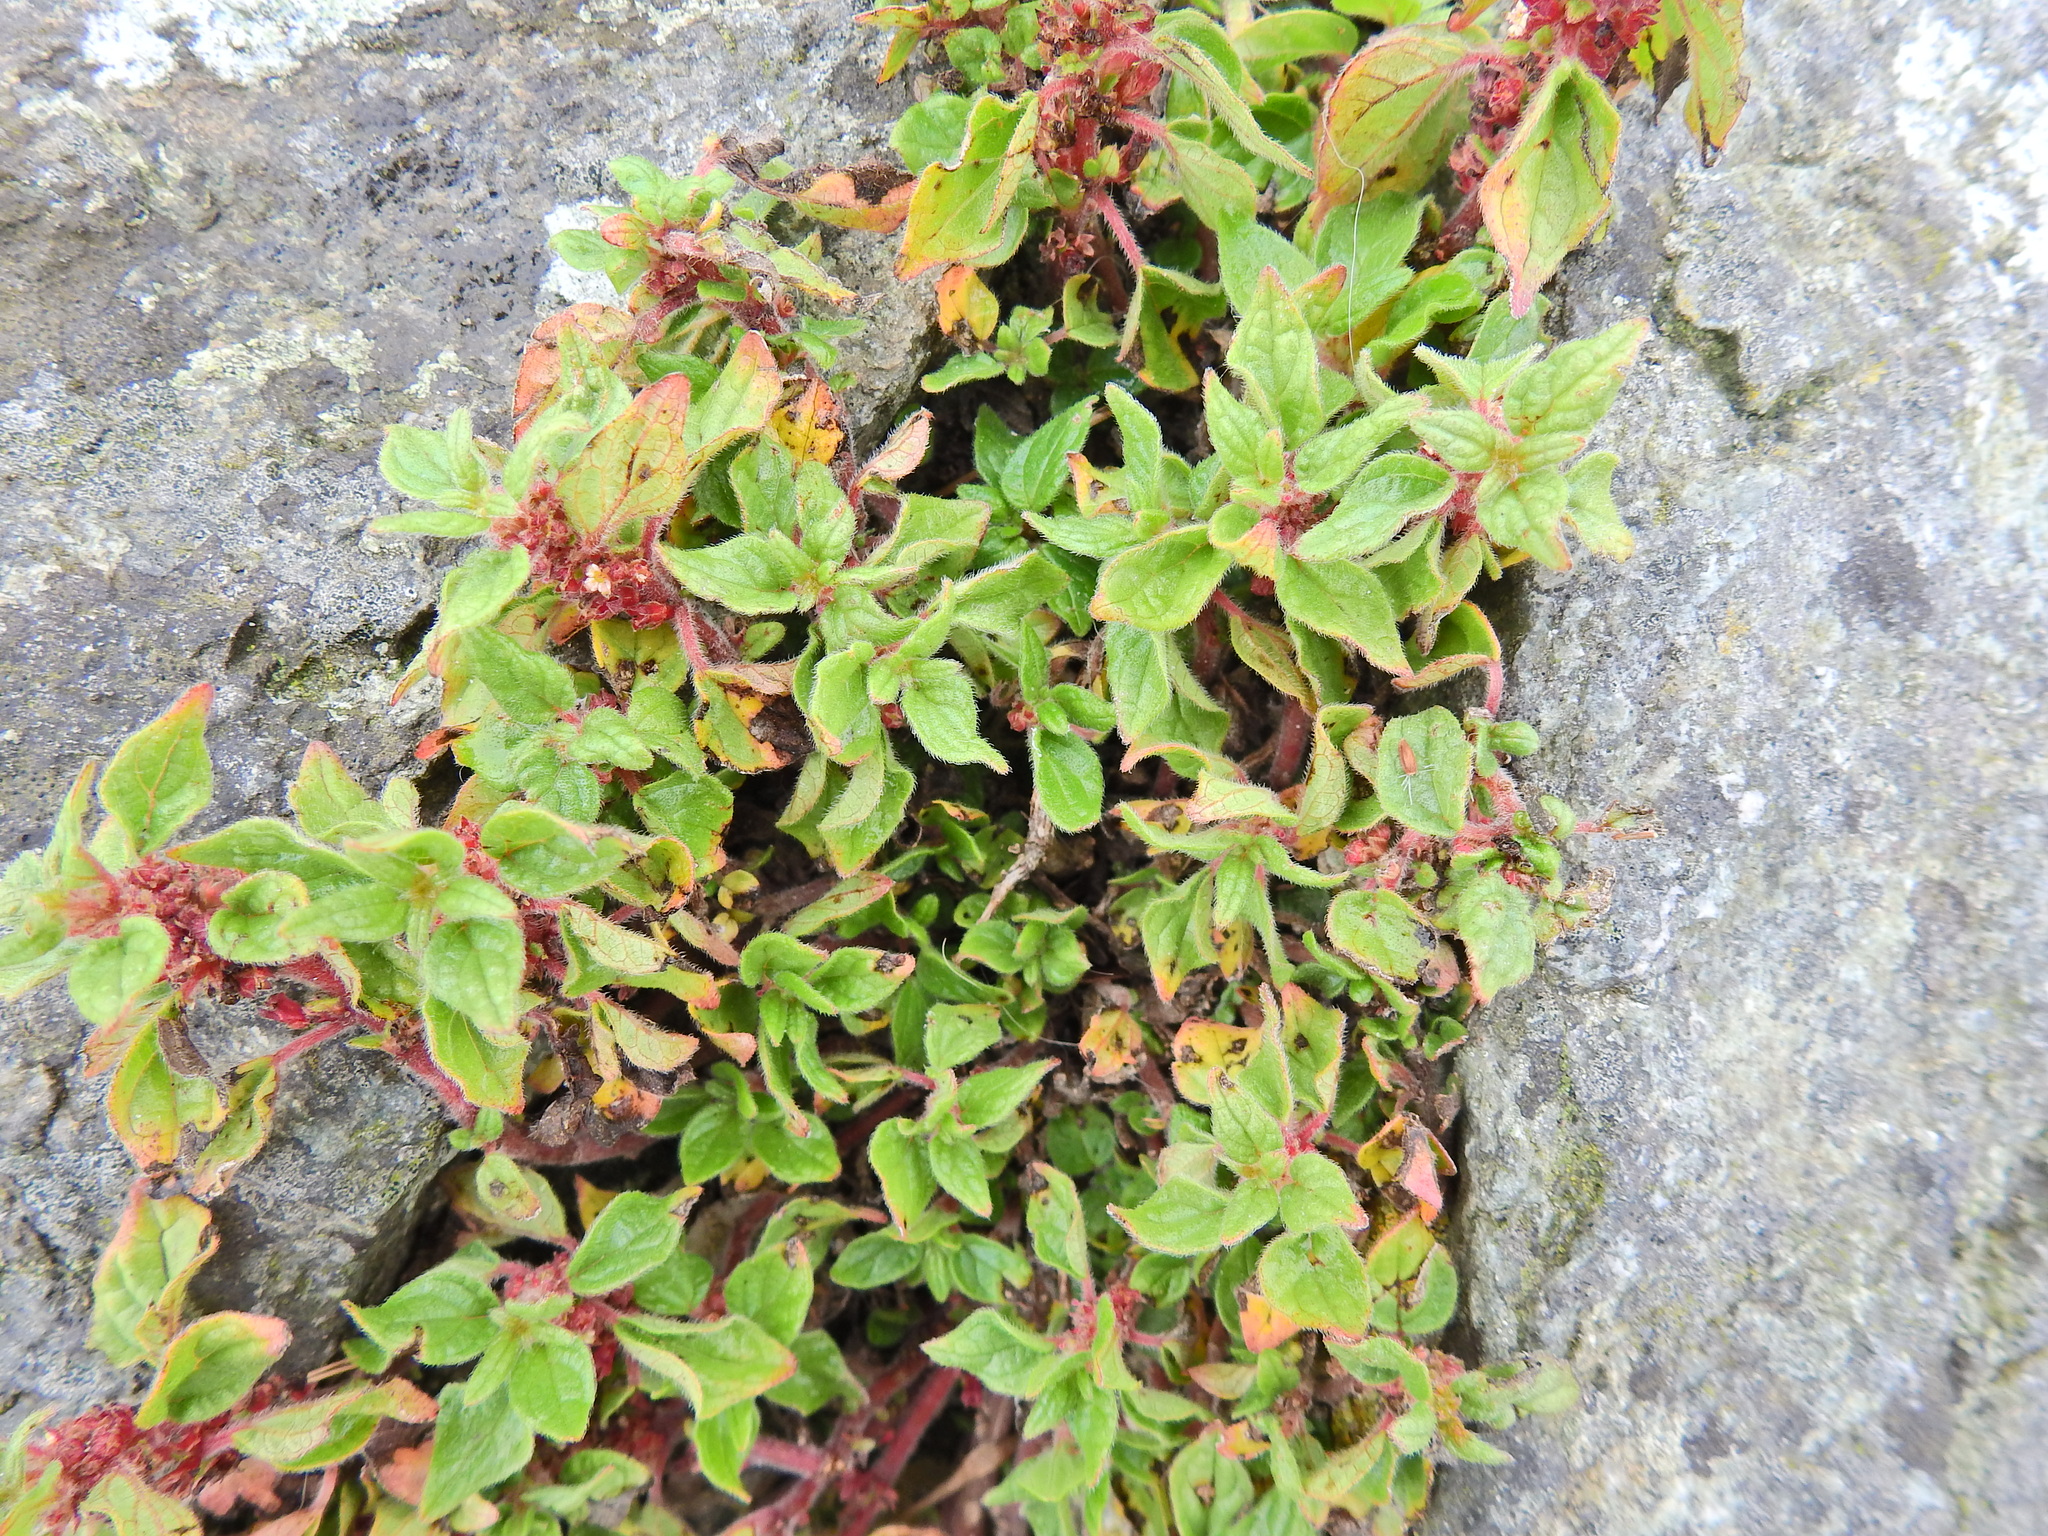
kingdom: Plantae
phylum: Tracheophyta
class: Magnoliopsida
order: Rosales
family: Urticaceae
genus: Parietaria
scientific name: Parietaria judaica
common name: Pellitory-of-the-wall
